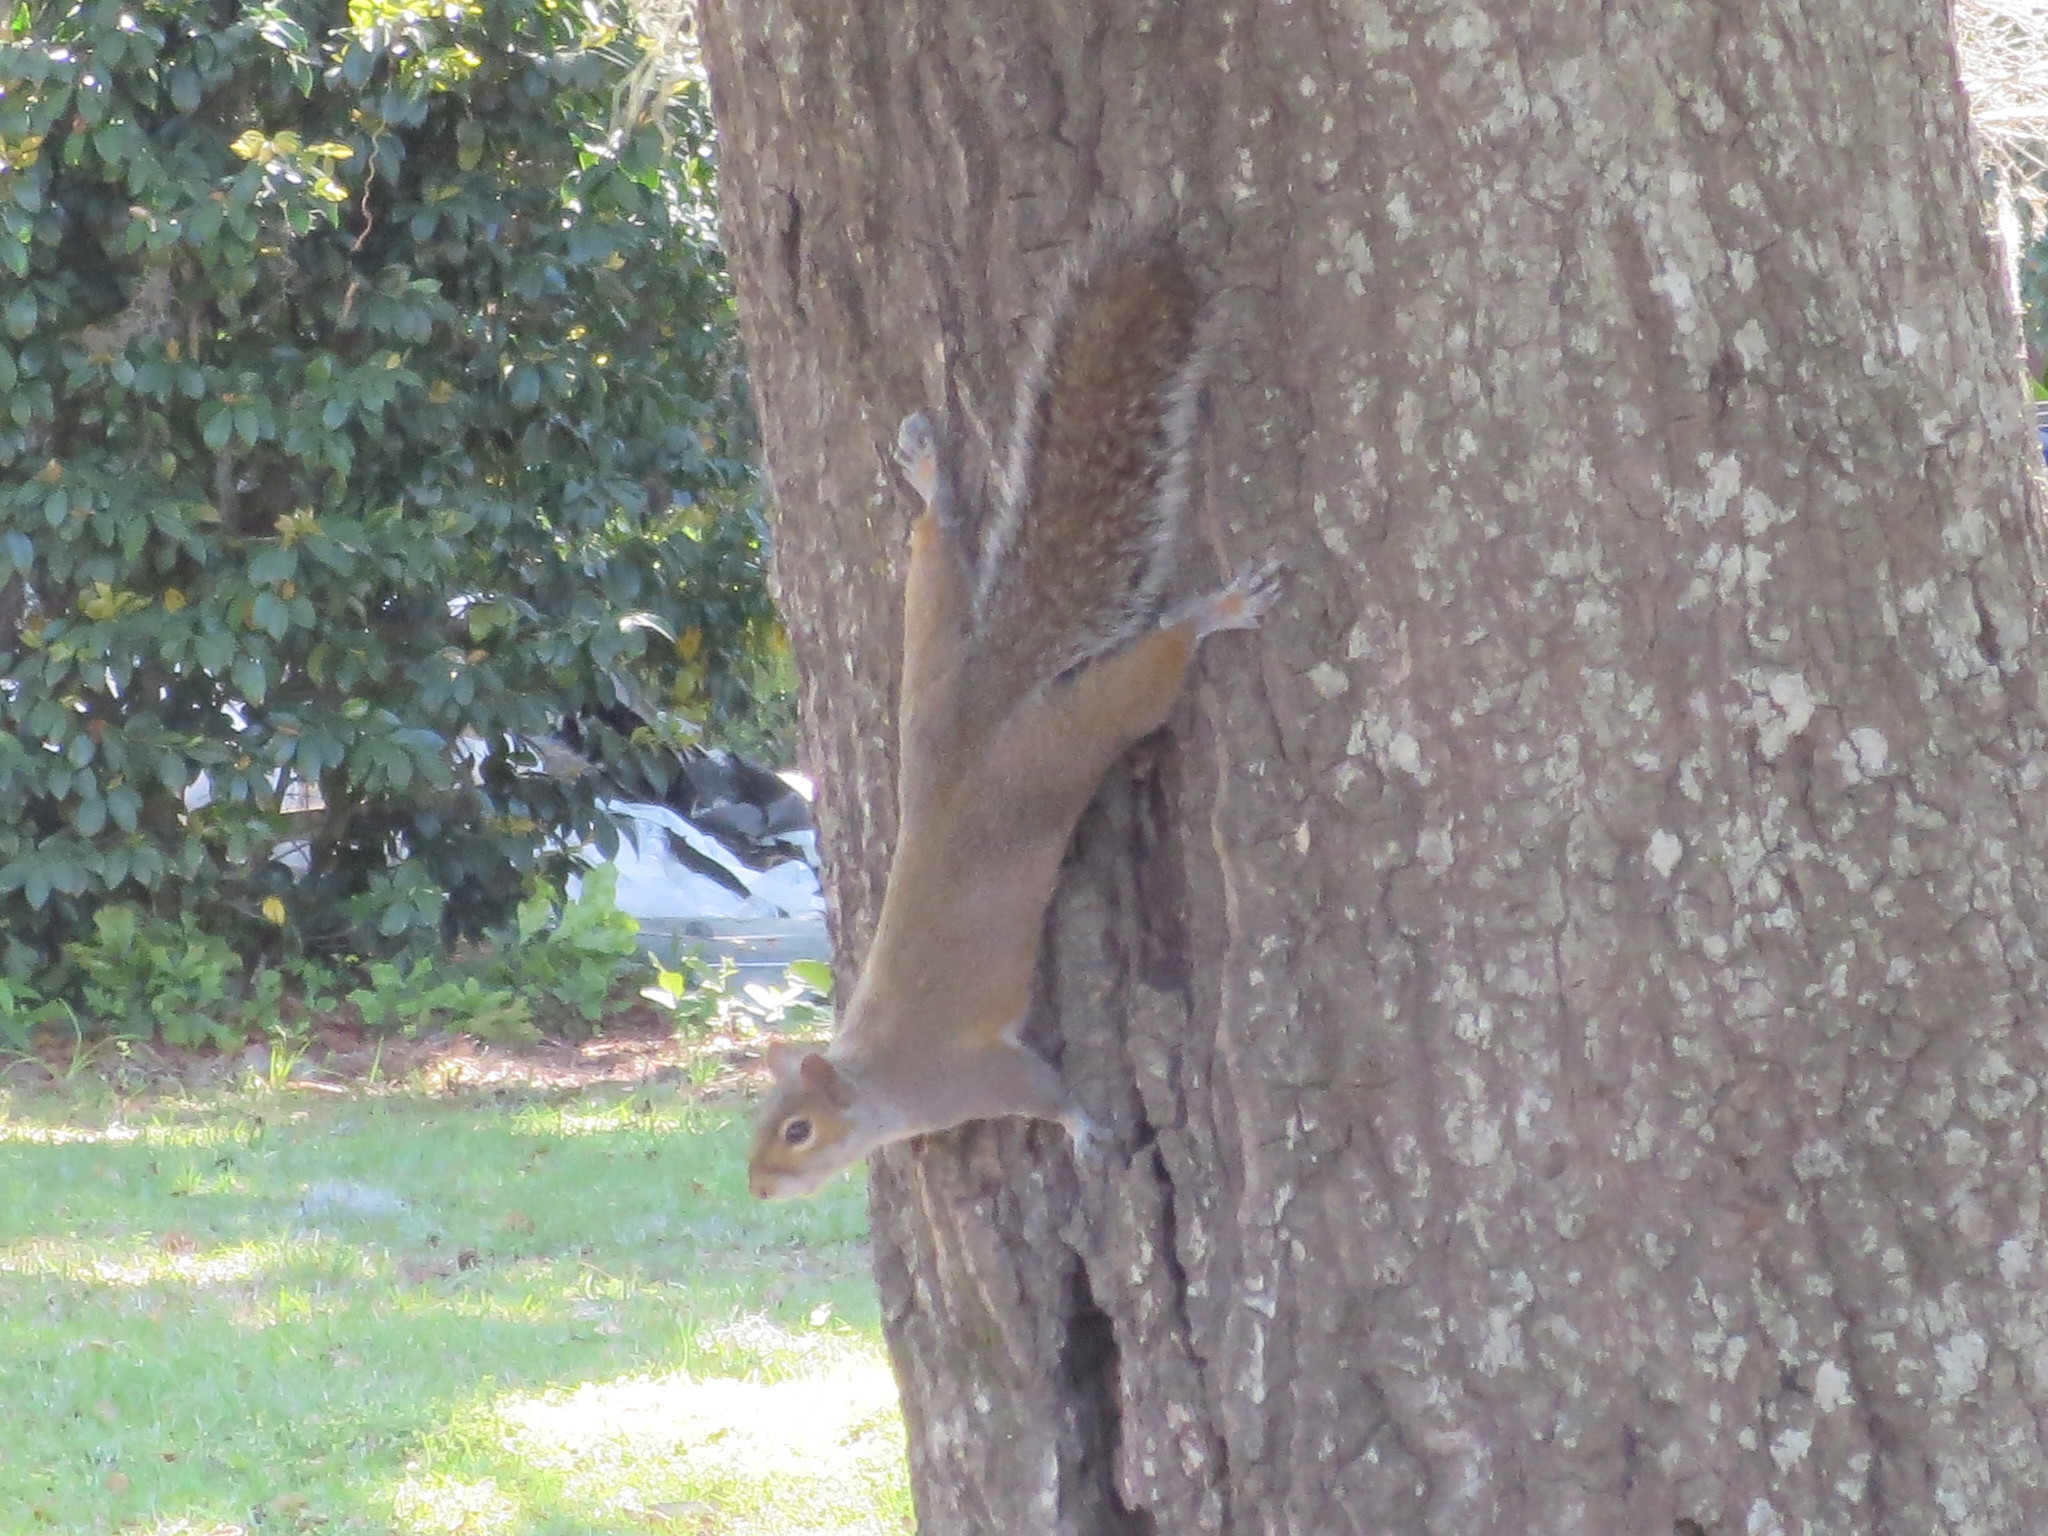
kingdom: Animalia
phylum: Chordata
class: Mammalia
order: Rodentia
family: Sciuridae
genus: Sciurus
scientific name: Sciurus carolinensis
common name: Eastern gray squirrel
